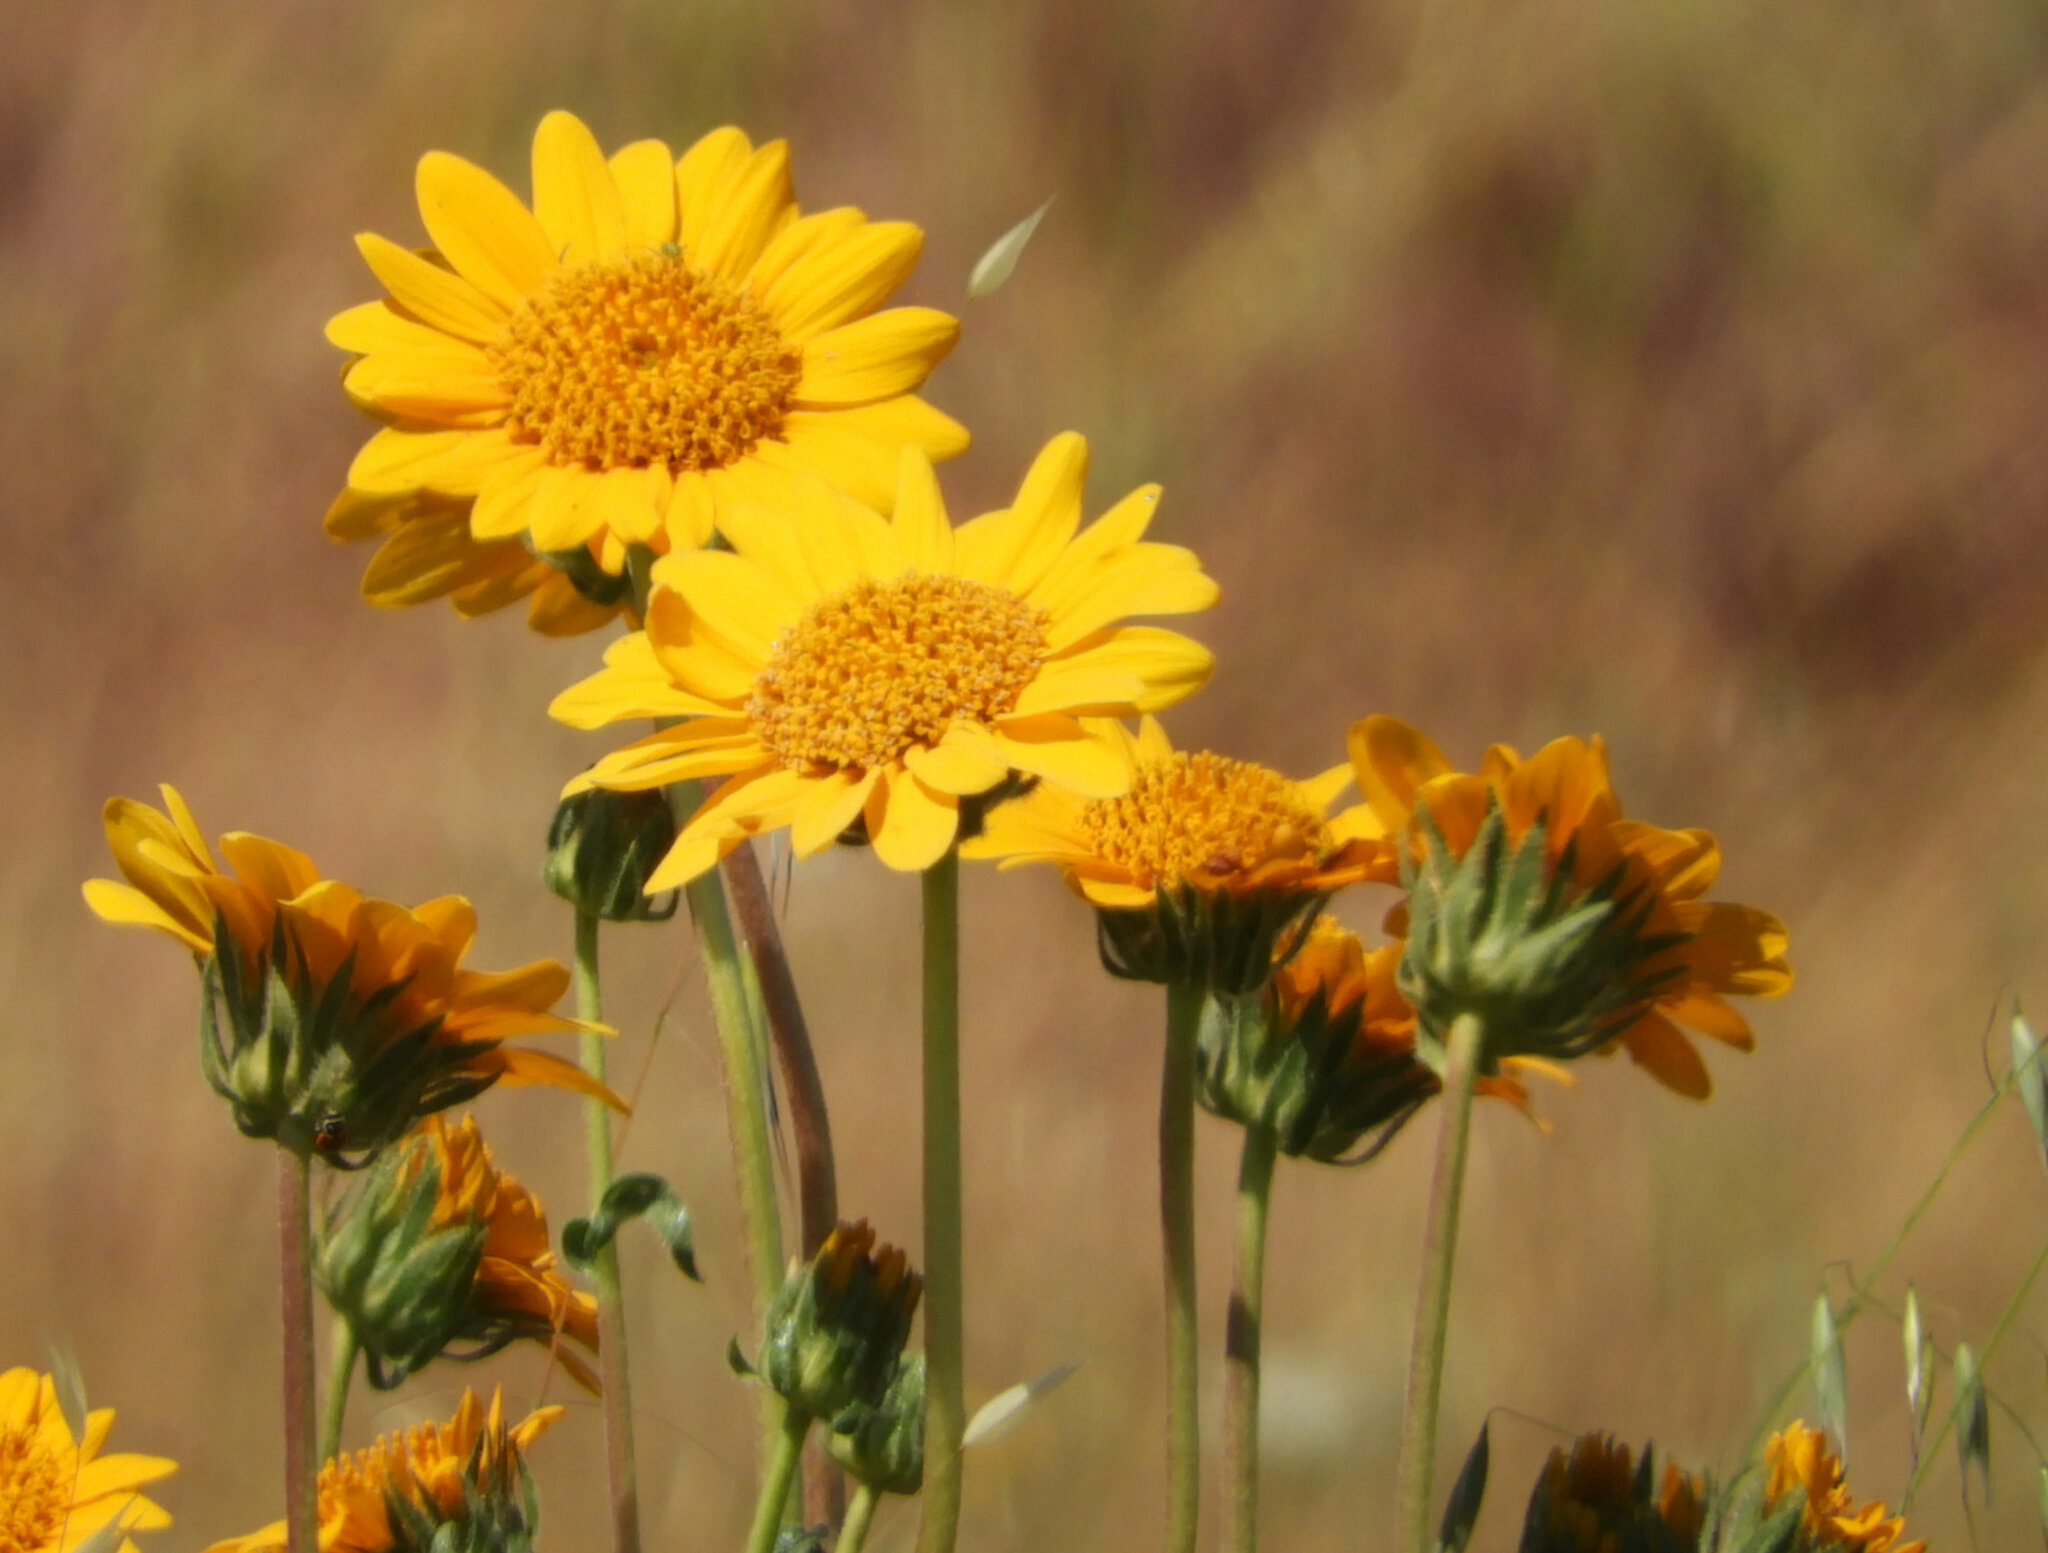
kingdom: Plantae
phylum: Tracheophyta
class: Magnoliopsida
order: Asterales
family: Asteraceae
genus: Wyethia
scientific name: Wyethia angustifolia
